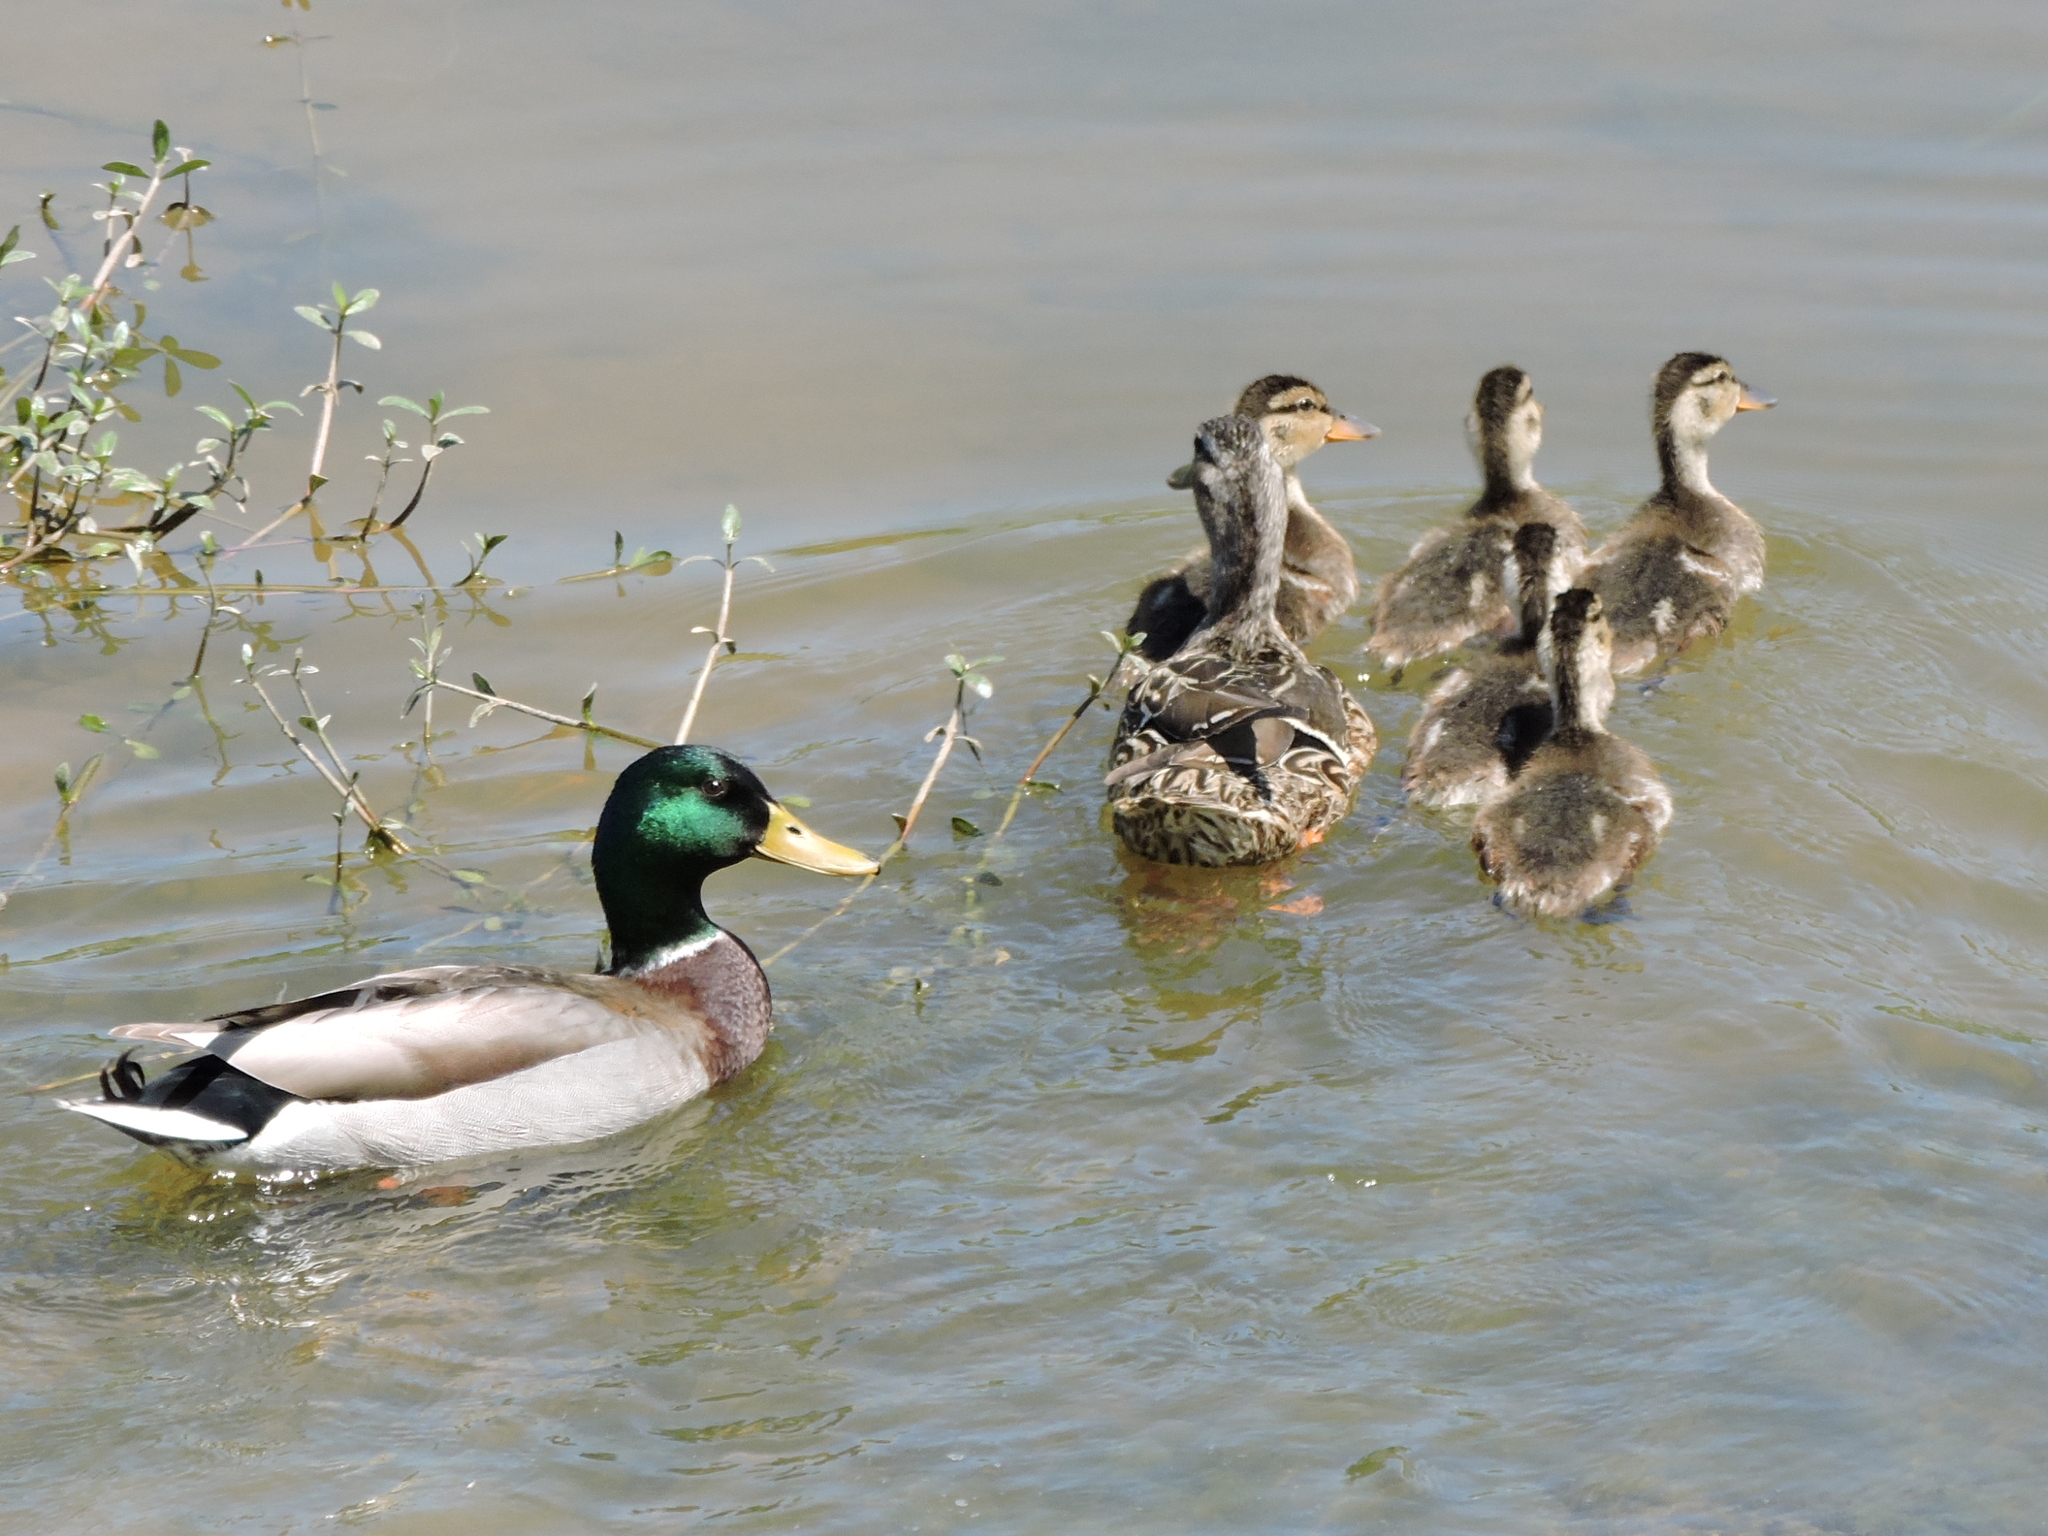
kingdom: Animalia
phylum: Chordata
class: Aves
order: Anseriformes
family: Anatidae
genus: Anas
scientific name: Anas platyrhynchos
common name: Mallard
